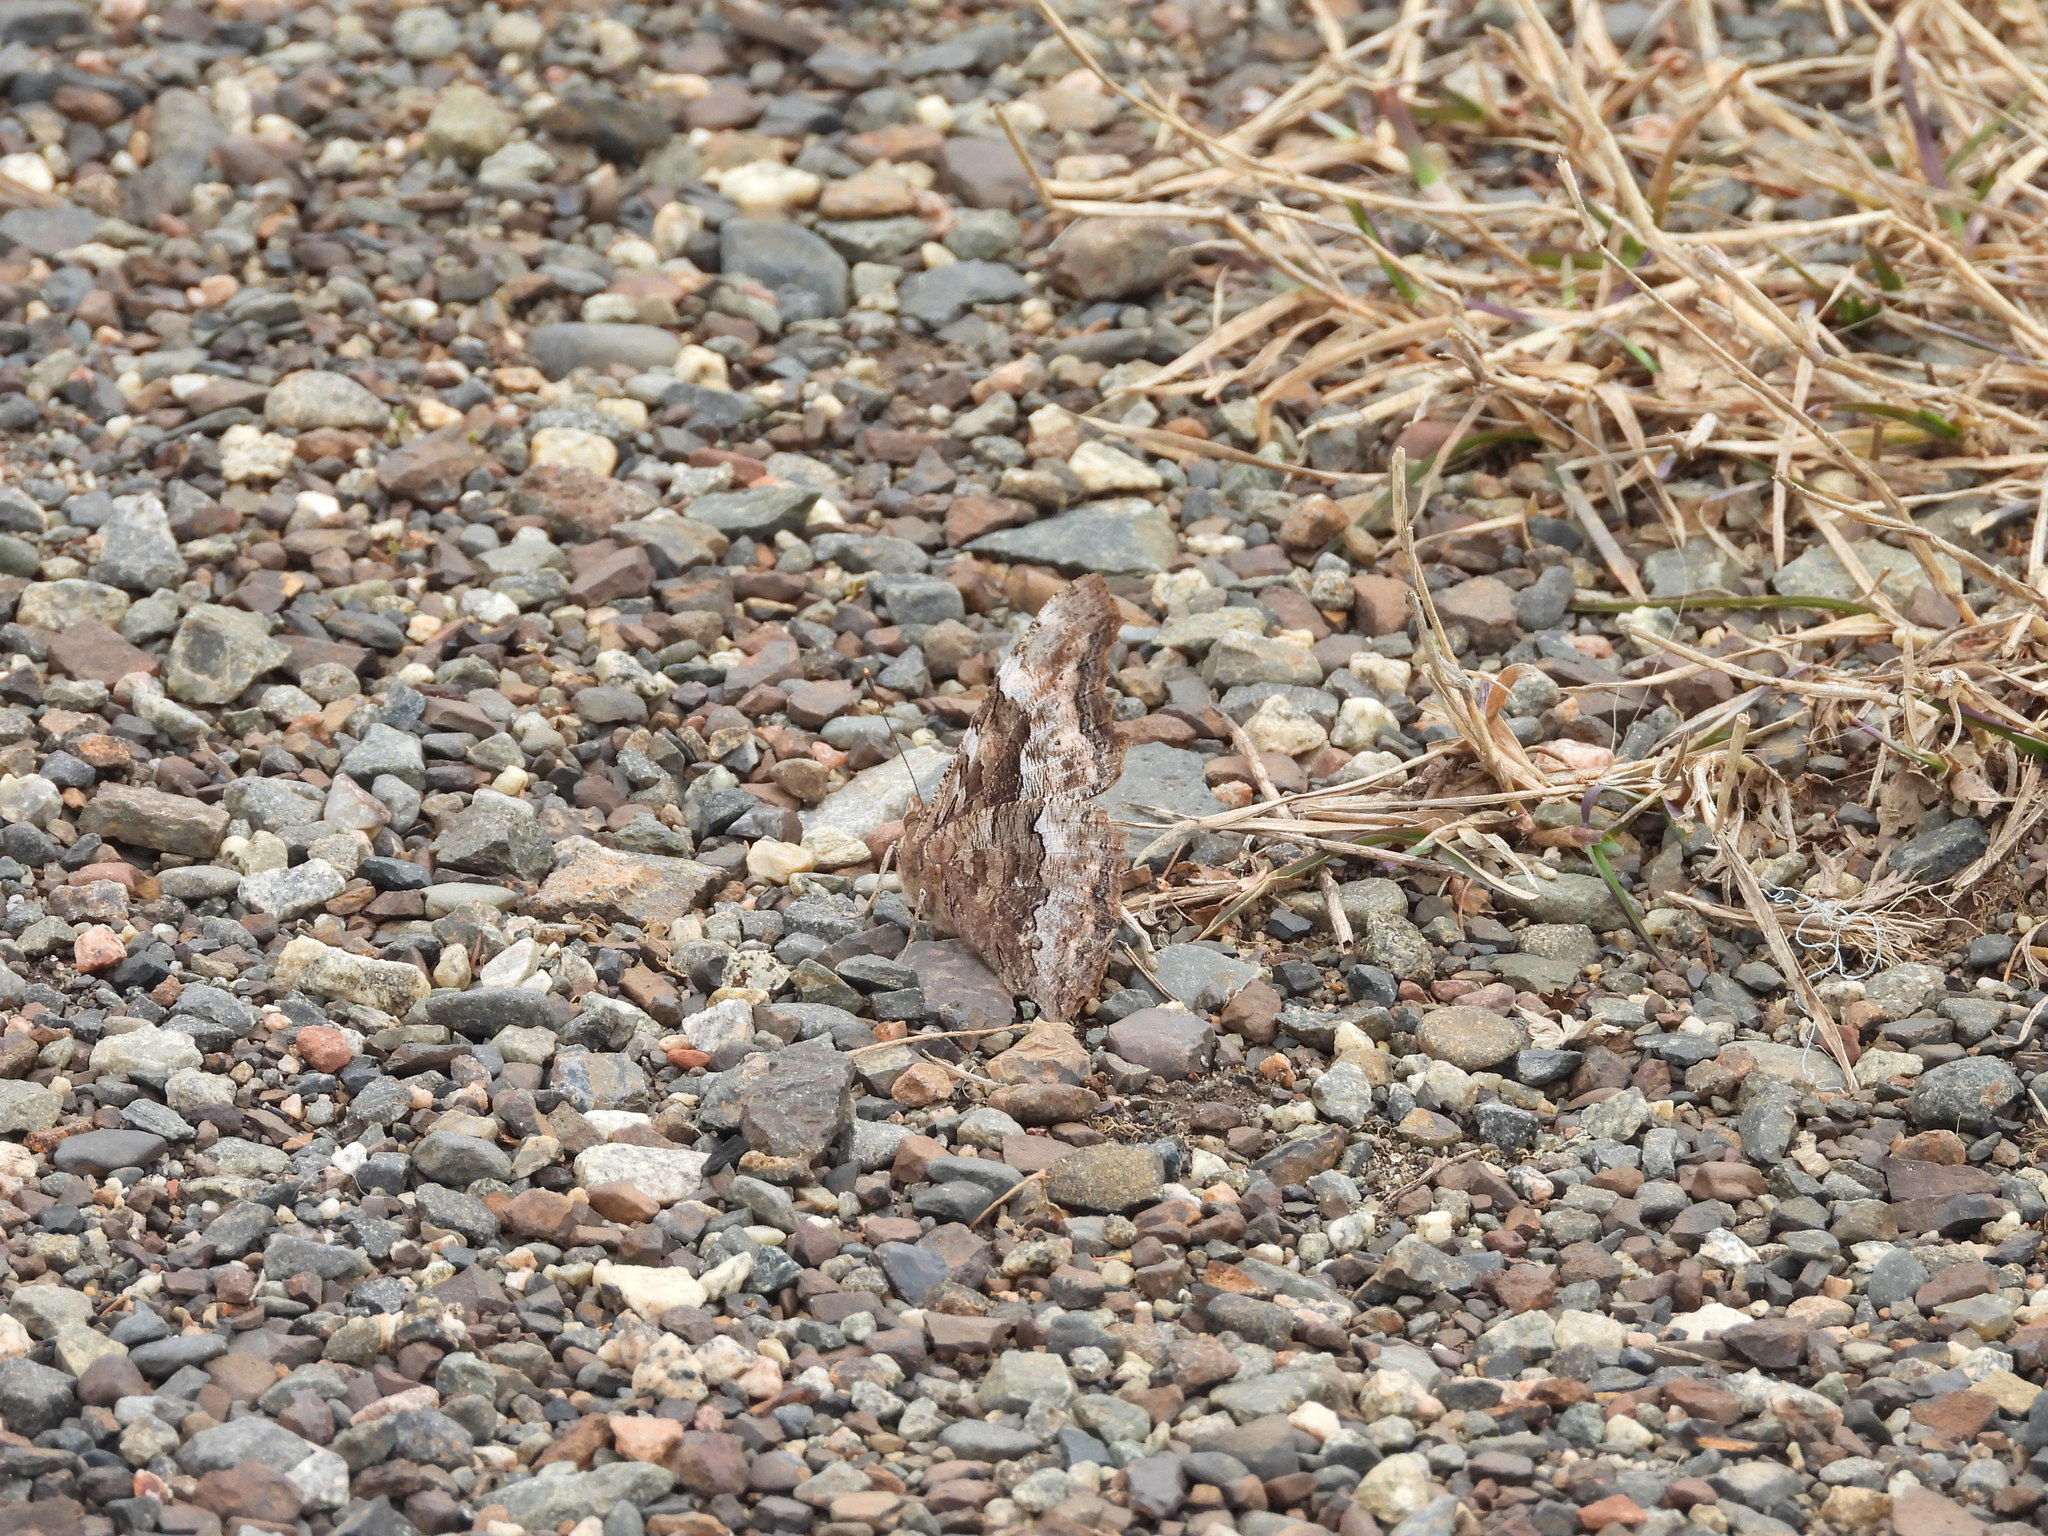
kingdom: Animalia
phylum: Arthropoda
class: Insecta
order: Lepidoptera
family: Nymphalidae
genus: Polygonia
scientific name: Polygonia vaualbum
